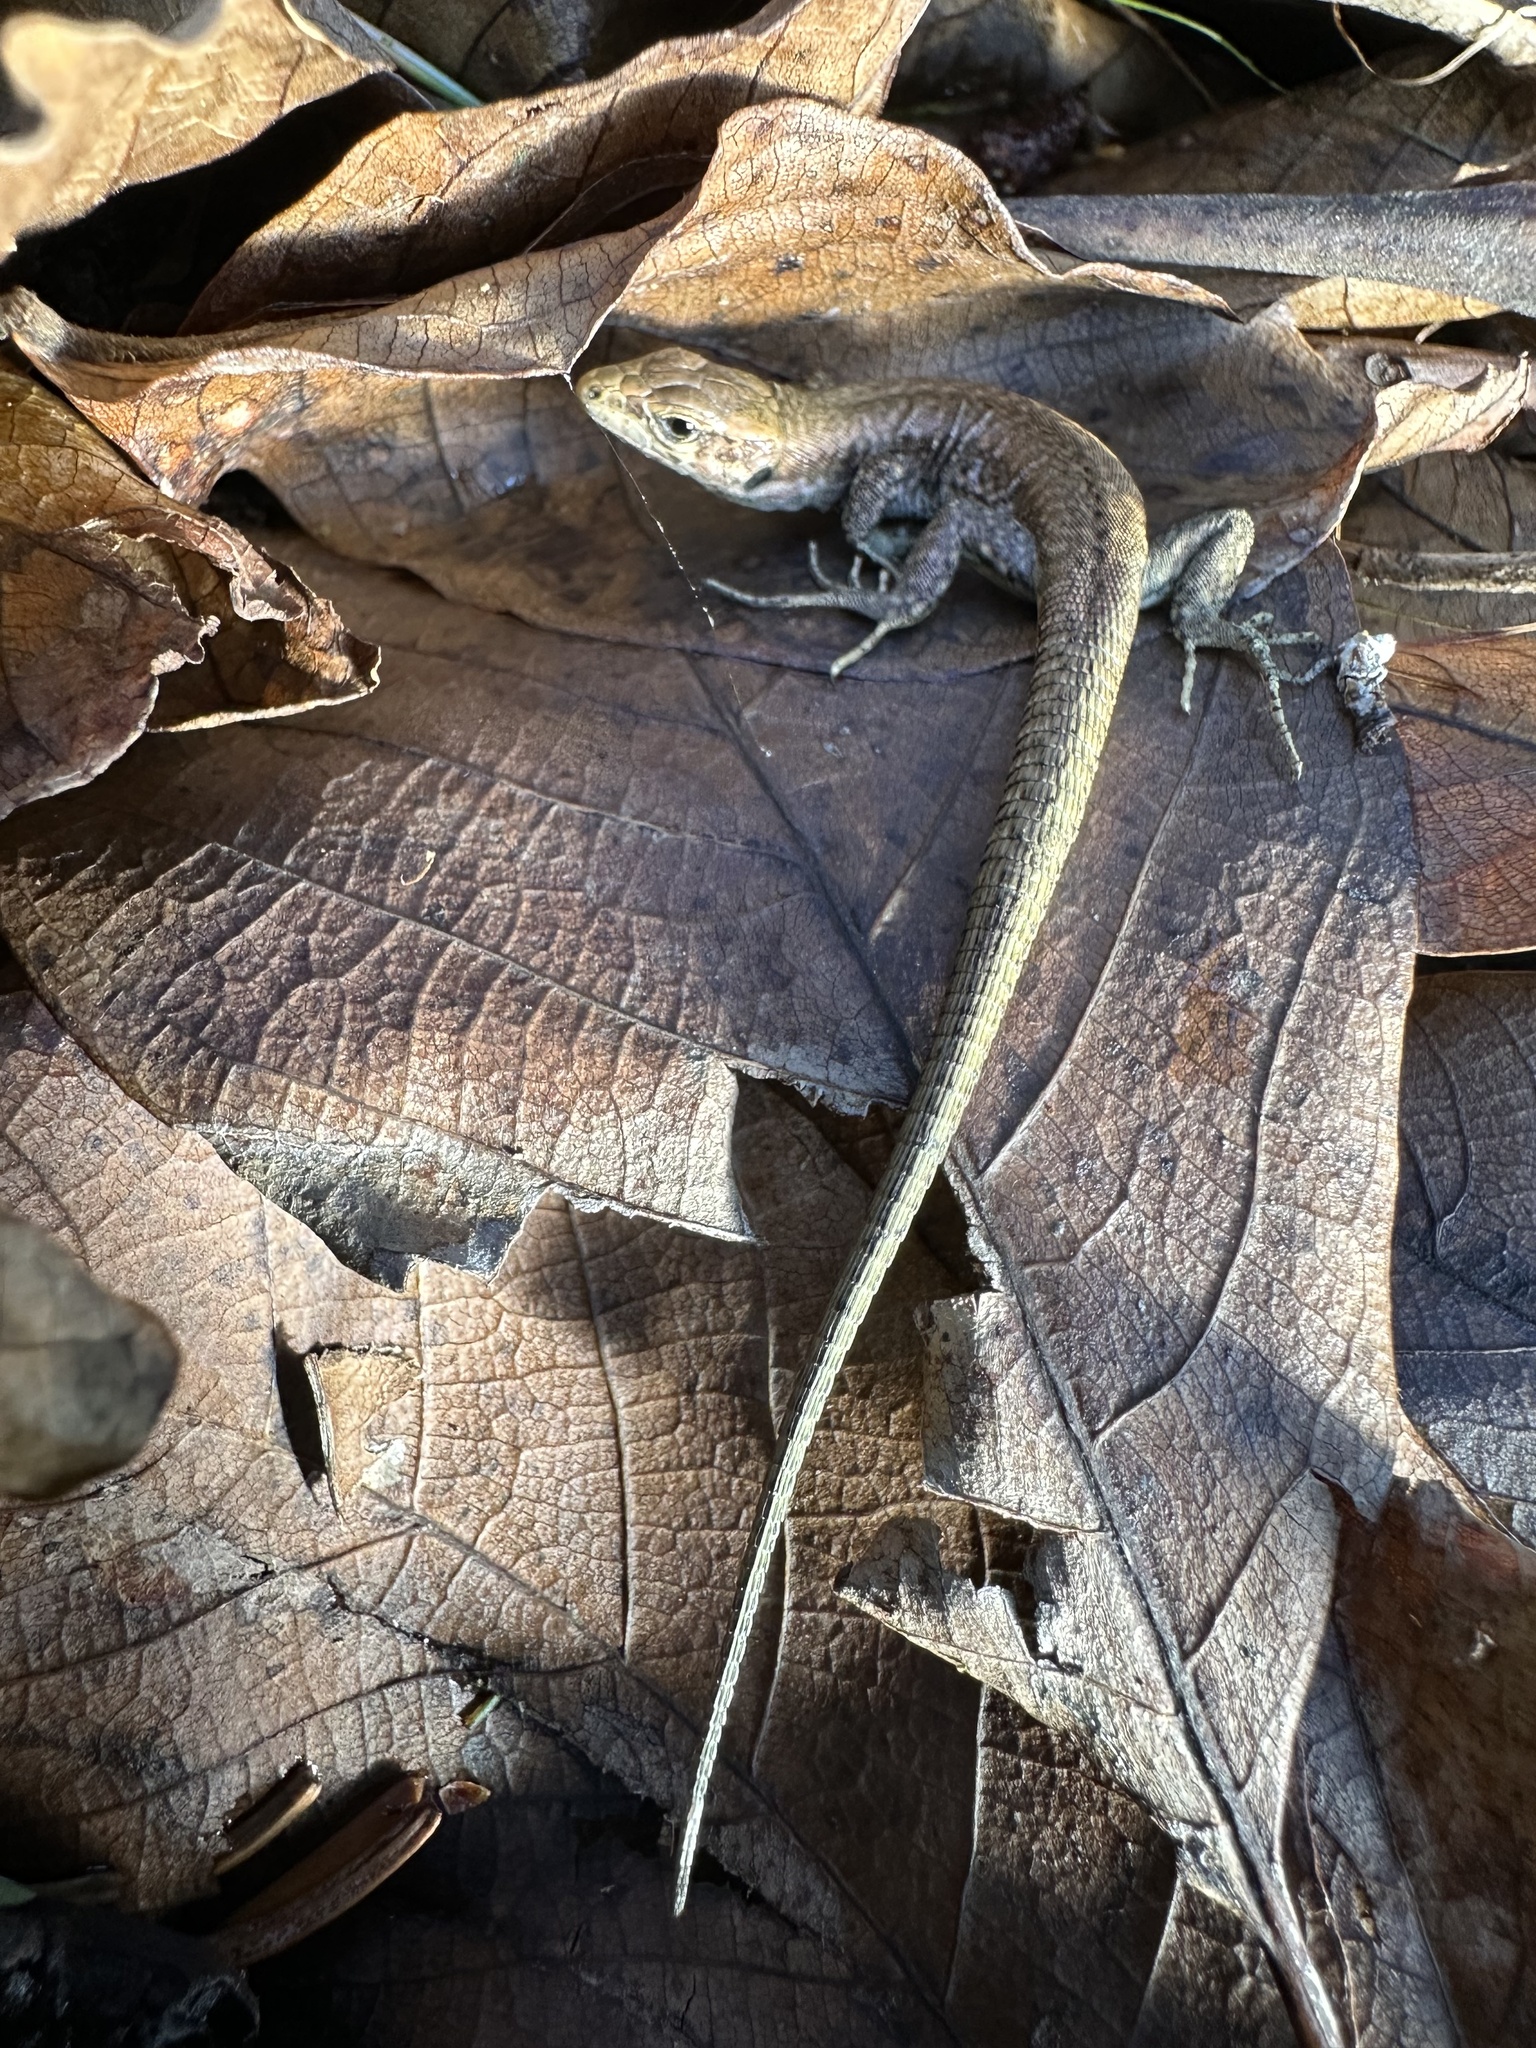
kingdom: Animalia
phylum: Chordata
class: Squamata
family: Lacertidae
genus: Podarcis
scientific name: Podarcis muralis
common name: Common wall lizard
